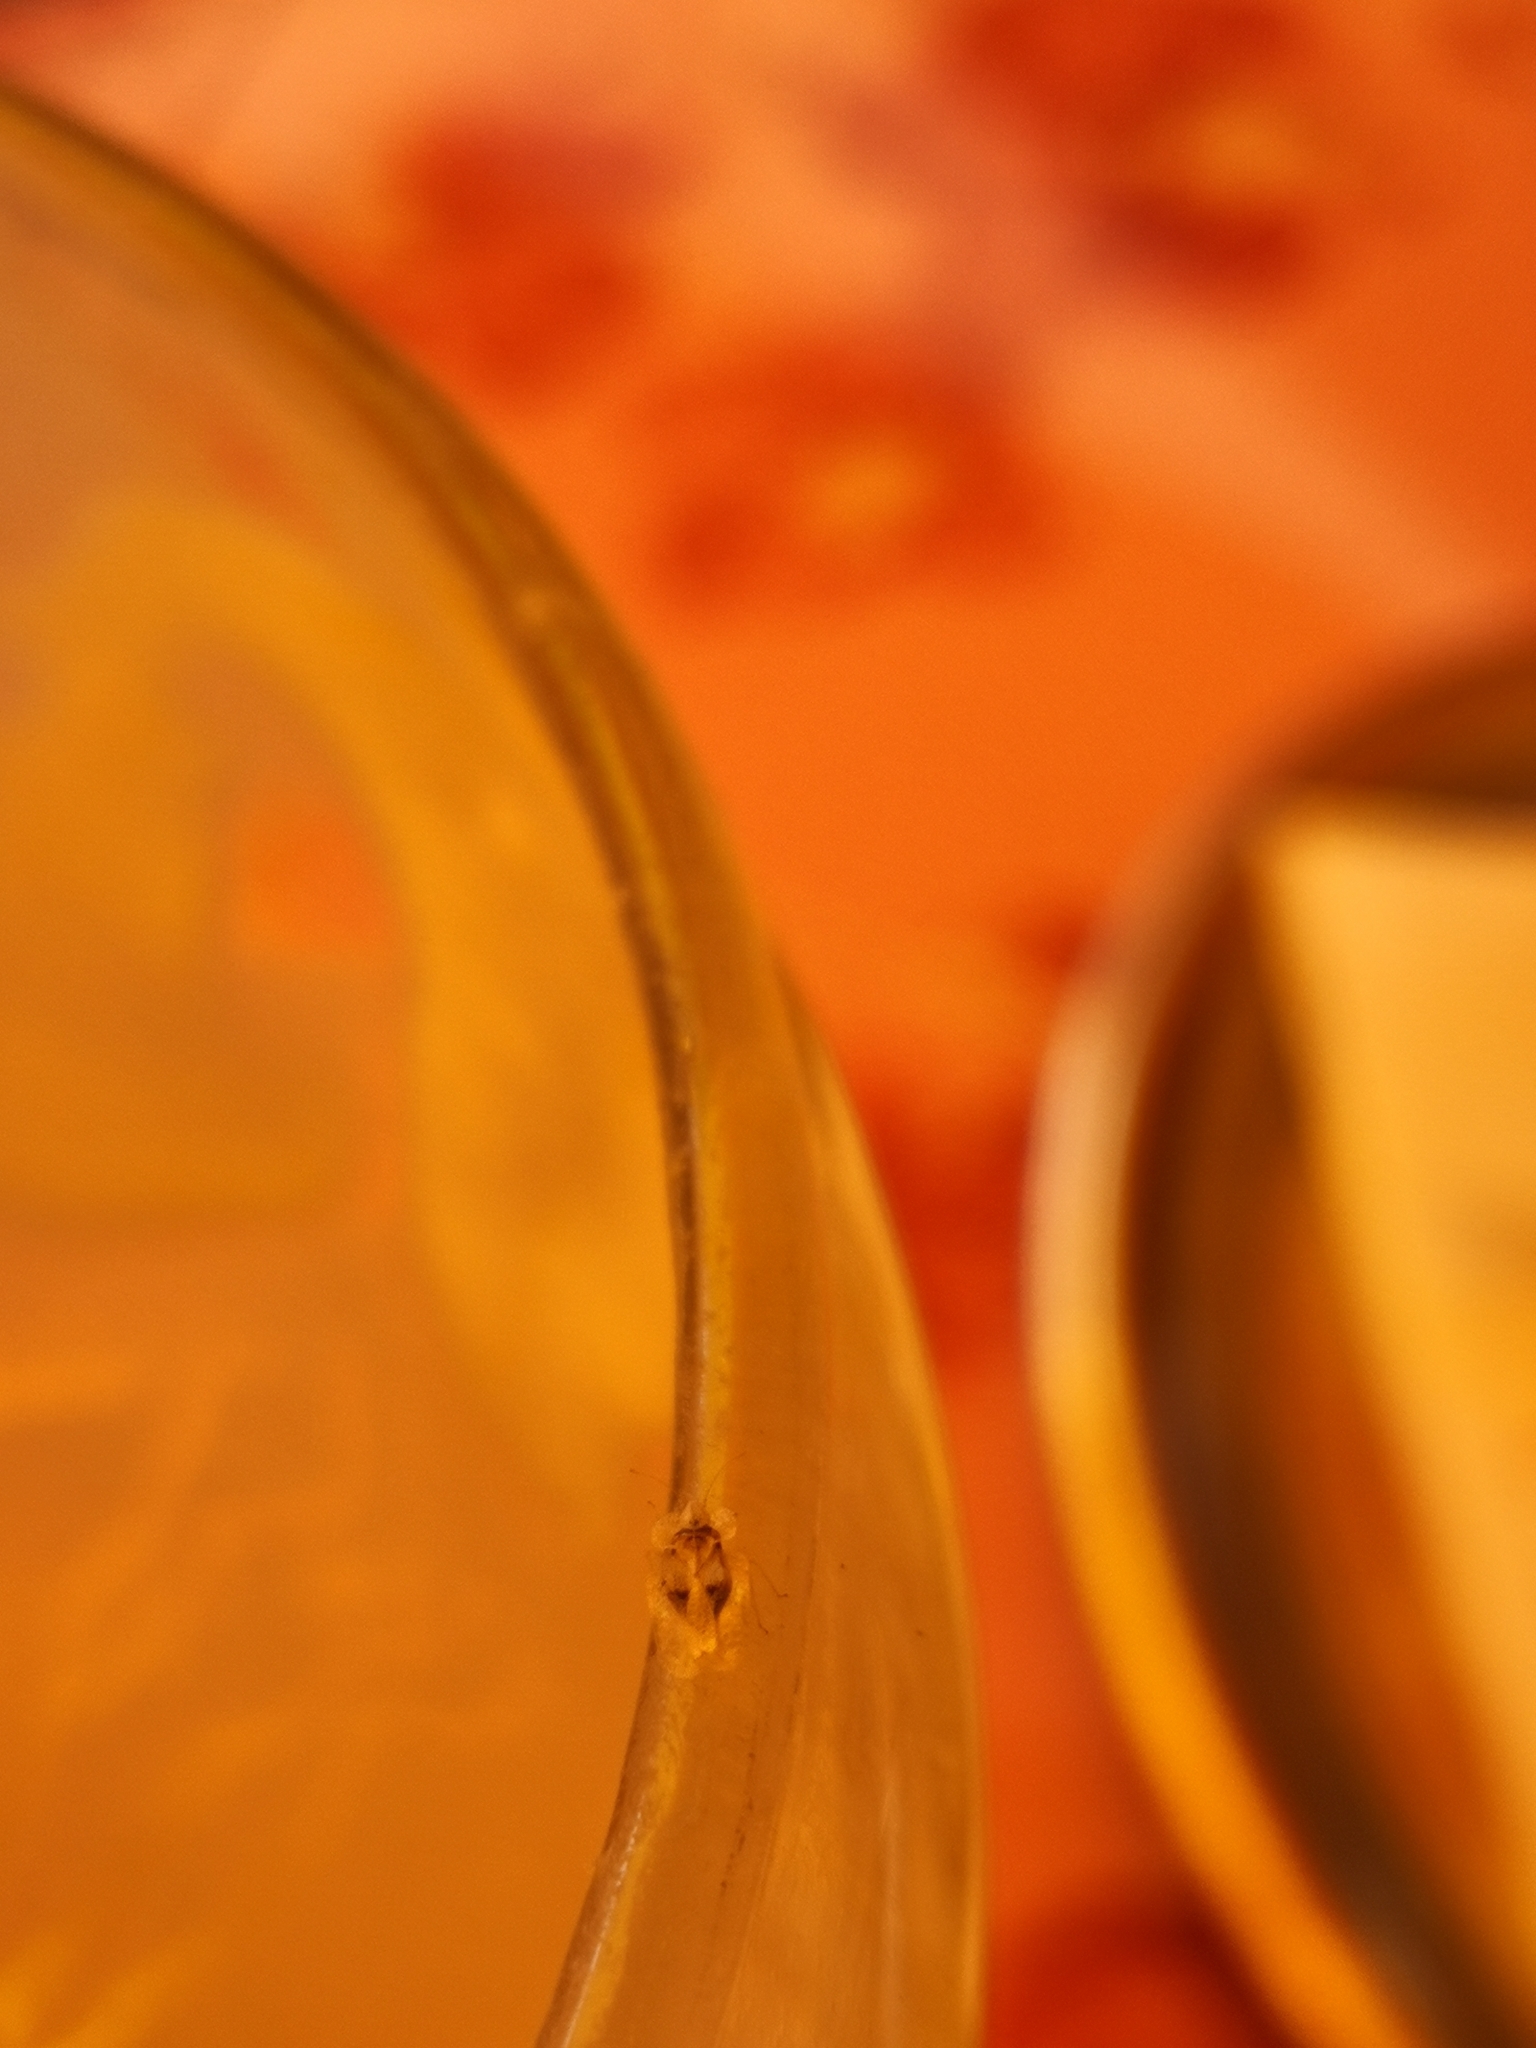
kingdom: Animalia
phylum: Arthropoda
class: Insecta
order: Hemiptera
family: Tingidae
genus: Corythucha
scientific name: Corythucha ciliata
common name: Sycamore lace bug
